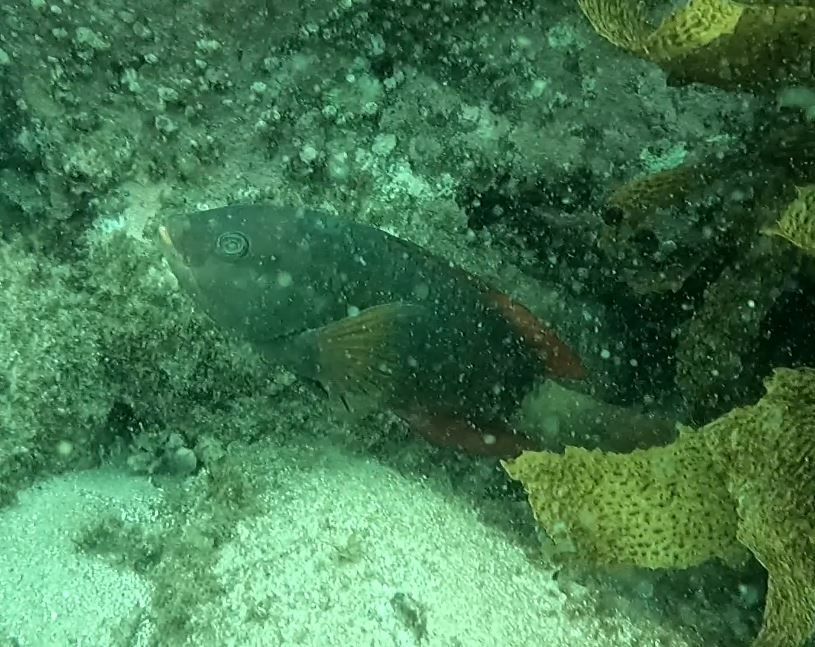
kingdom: Animalia
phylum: Chordata
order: Perciformes
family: Labridae
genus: Notolabrus
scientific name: Notolabrus gymnogenis
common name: Crimson banded wrasse
